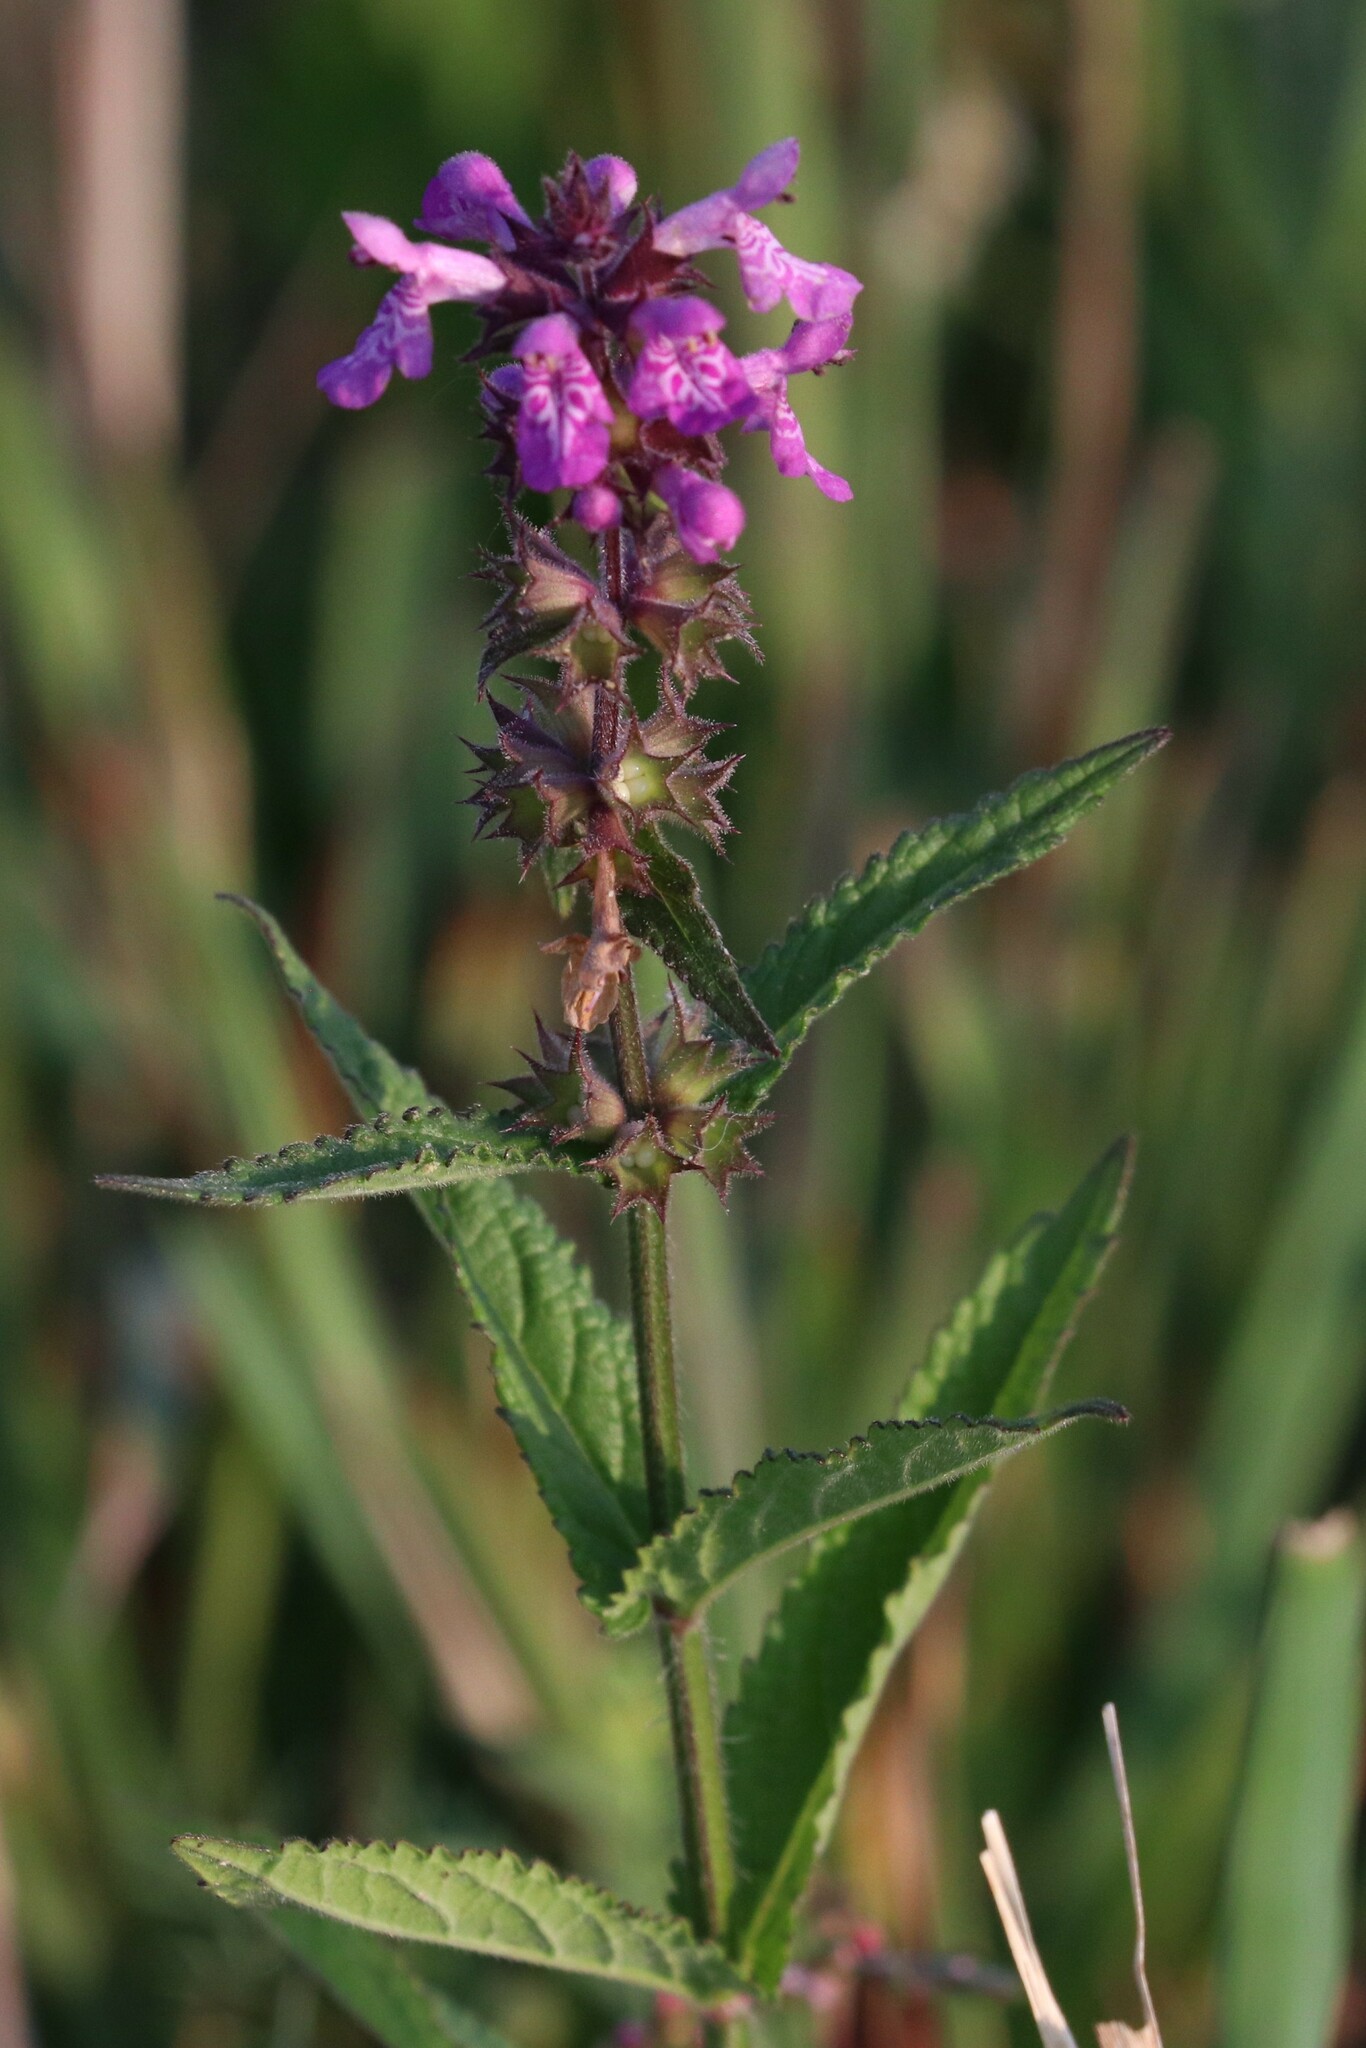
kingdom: Plantae
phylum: Tracheophyta
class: Magnoliopsida
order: Lamiales
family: Lamiaceae
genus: Stachys
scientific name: Stachys palustris
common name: Marsh woundwort
